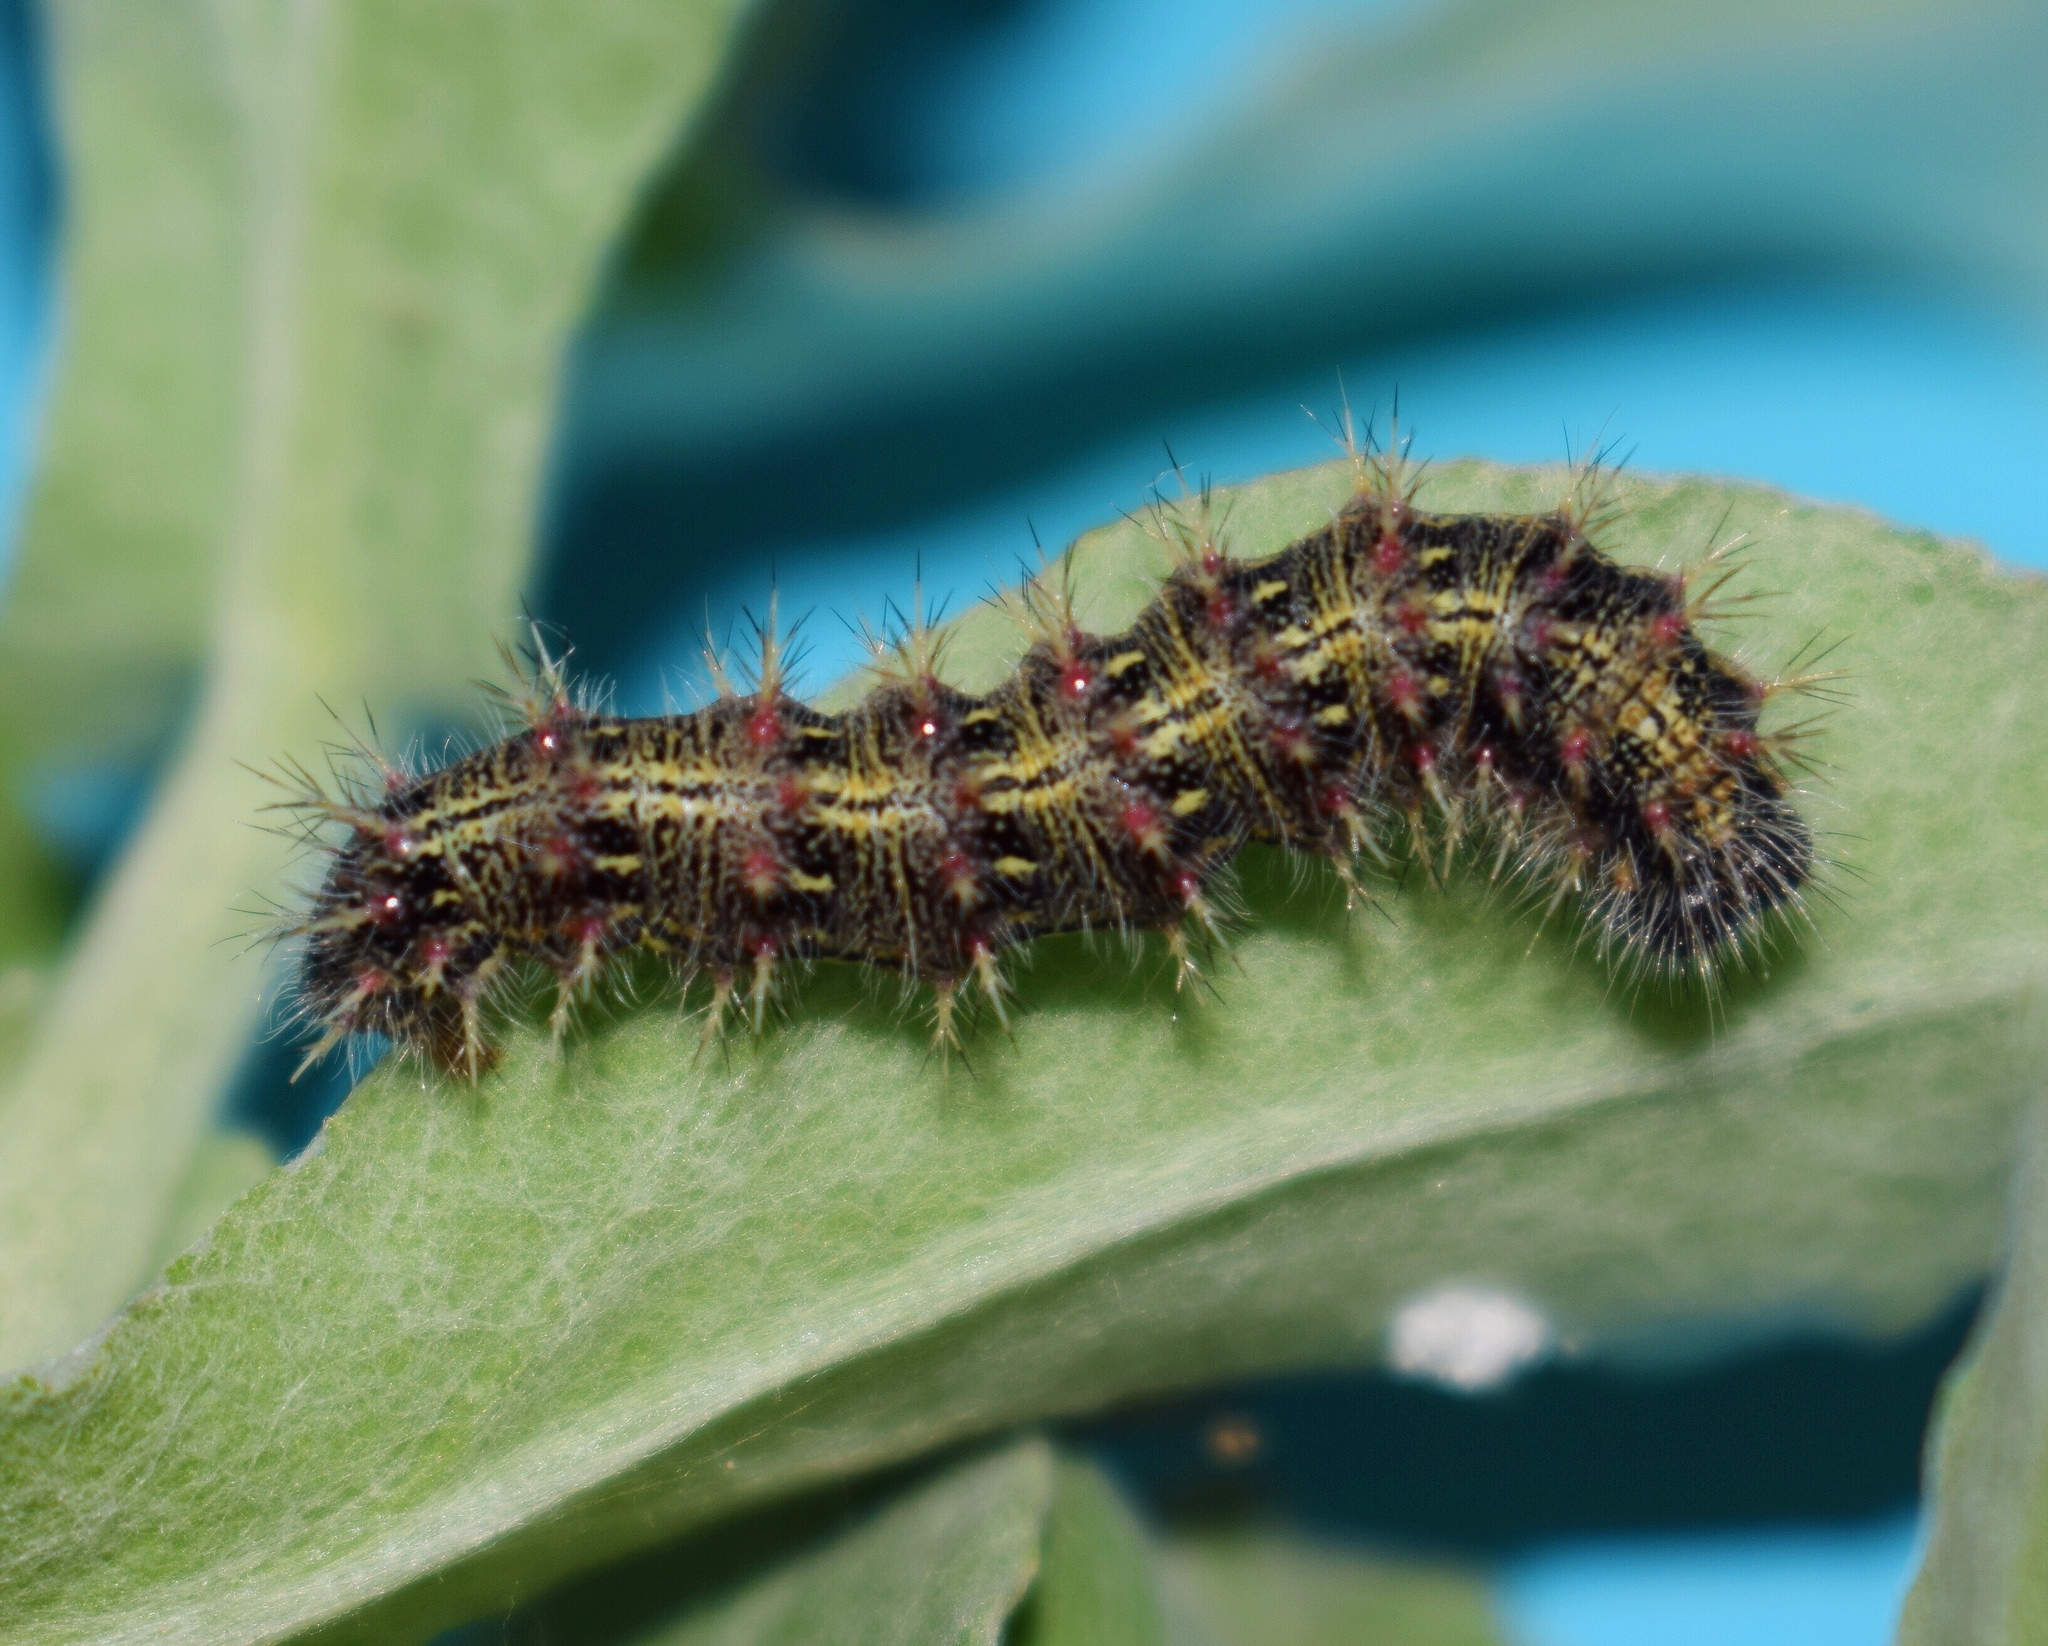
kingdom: Animalia
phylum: Arthropoda
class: Insecta
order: Lepidoptera
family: Nymphalidae
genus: Vanessa
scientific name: Vanessa cardui
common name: Painted lady
